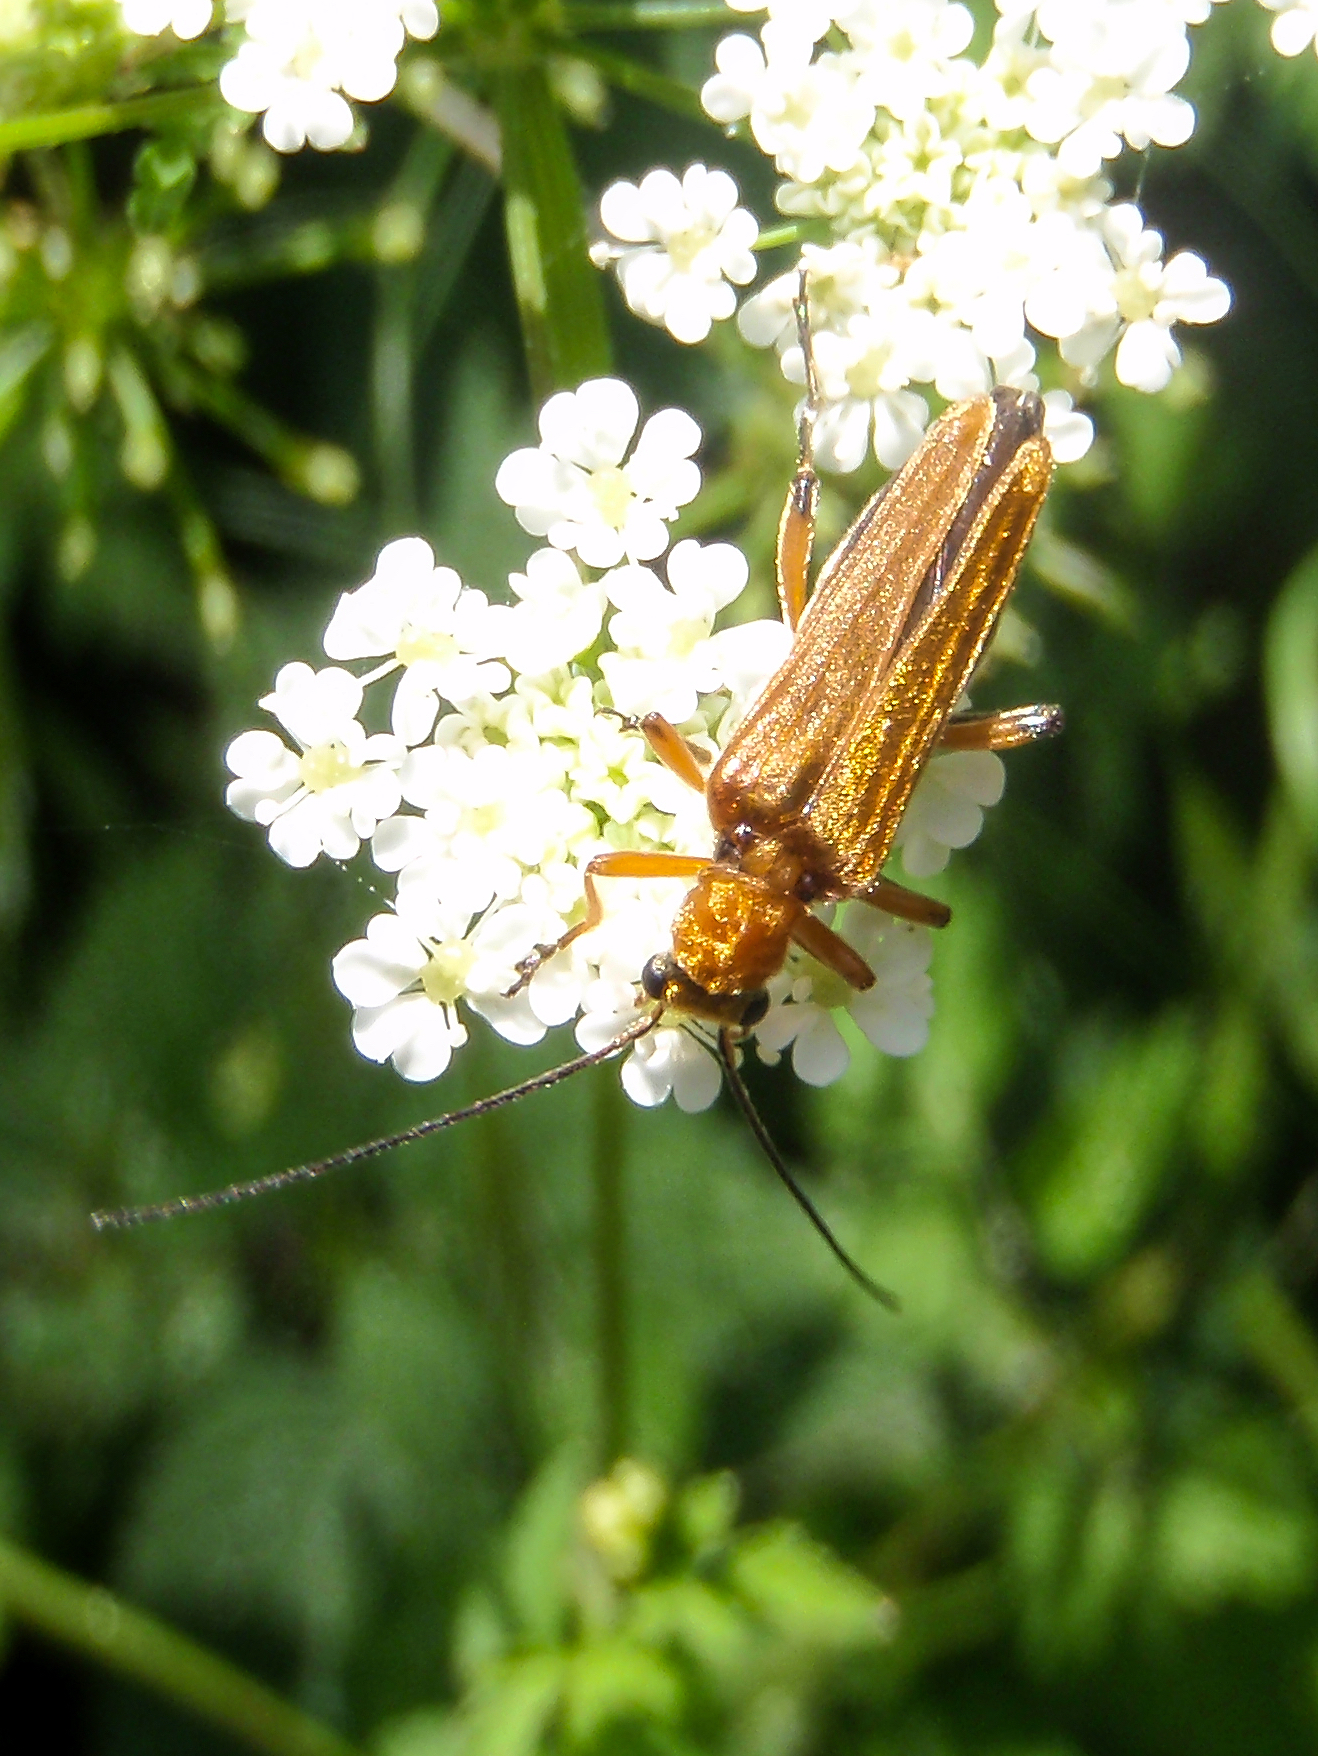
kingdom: Animalia
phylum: Arthropoda
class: Insecta
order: Coleoptera
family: Oedemeridae
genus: Oedemera
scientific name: Oedemera podagrariae
